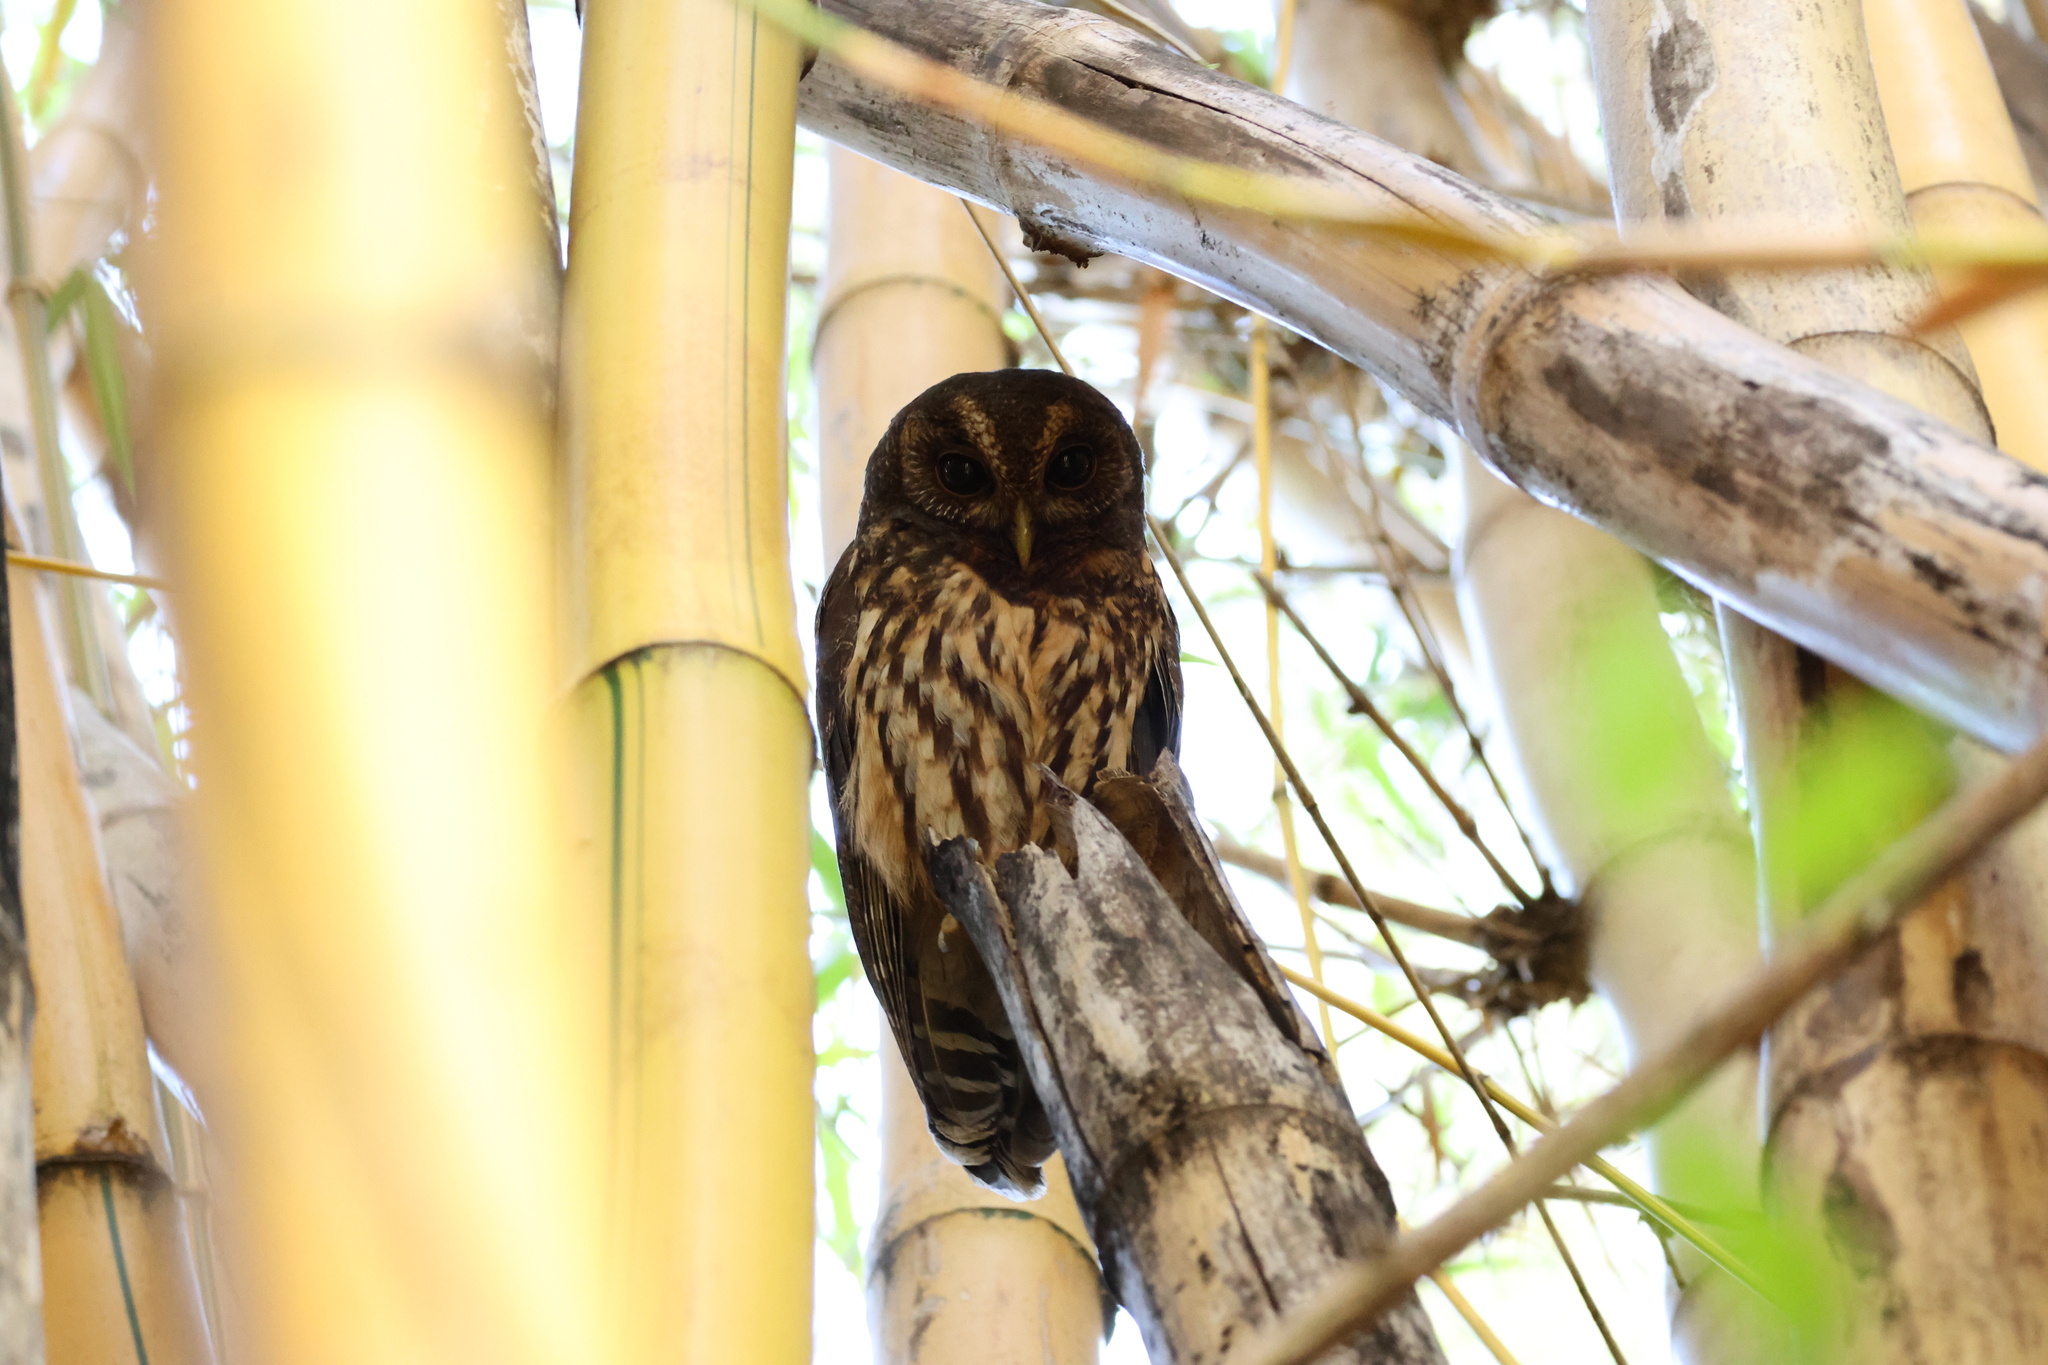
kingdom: Animalia
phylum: Chordata
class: Aves
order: Strigiformes
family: Strigidae
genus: Strix
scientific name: Strix virgata
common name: Mottled owl
